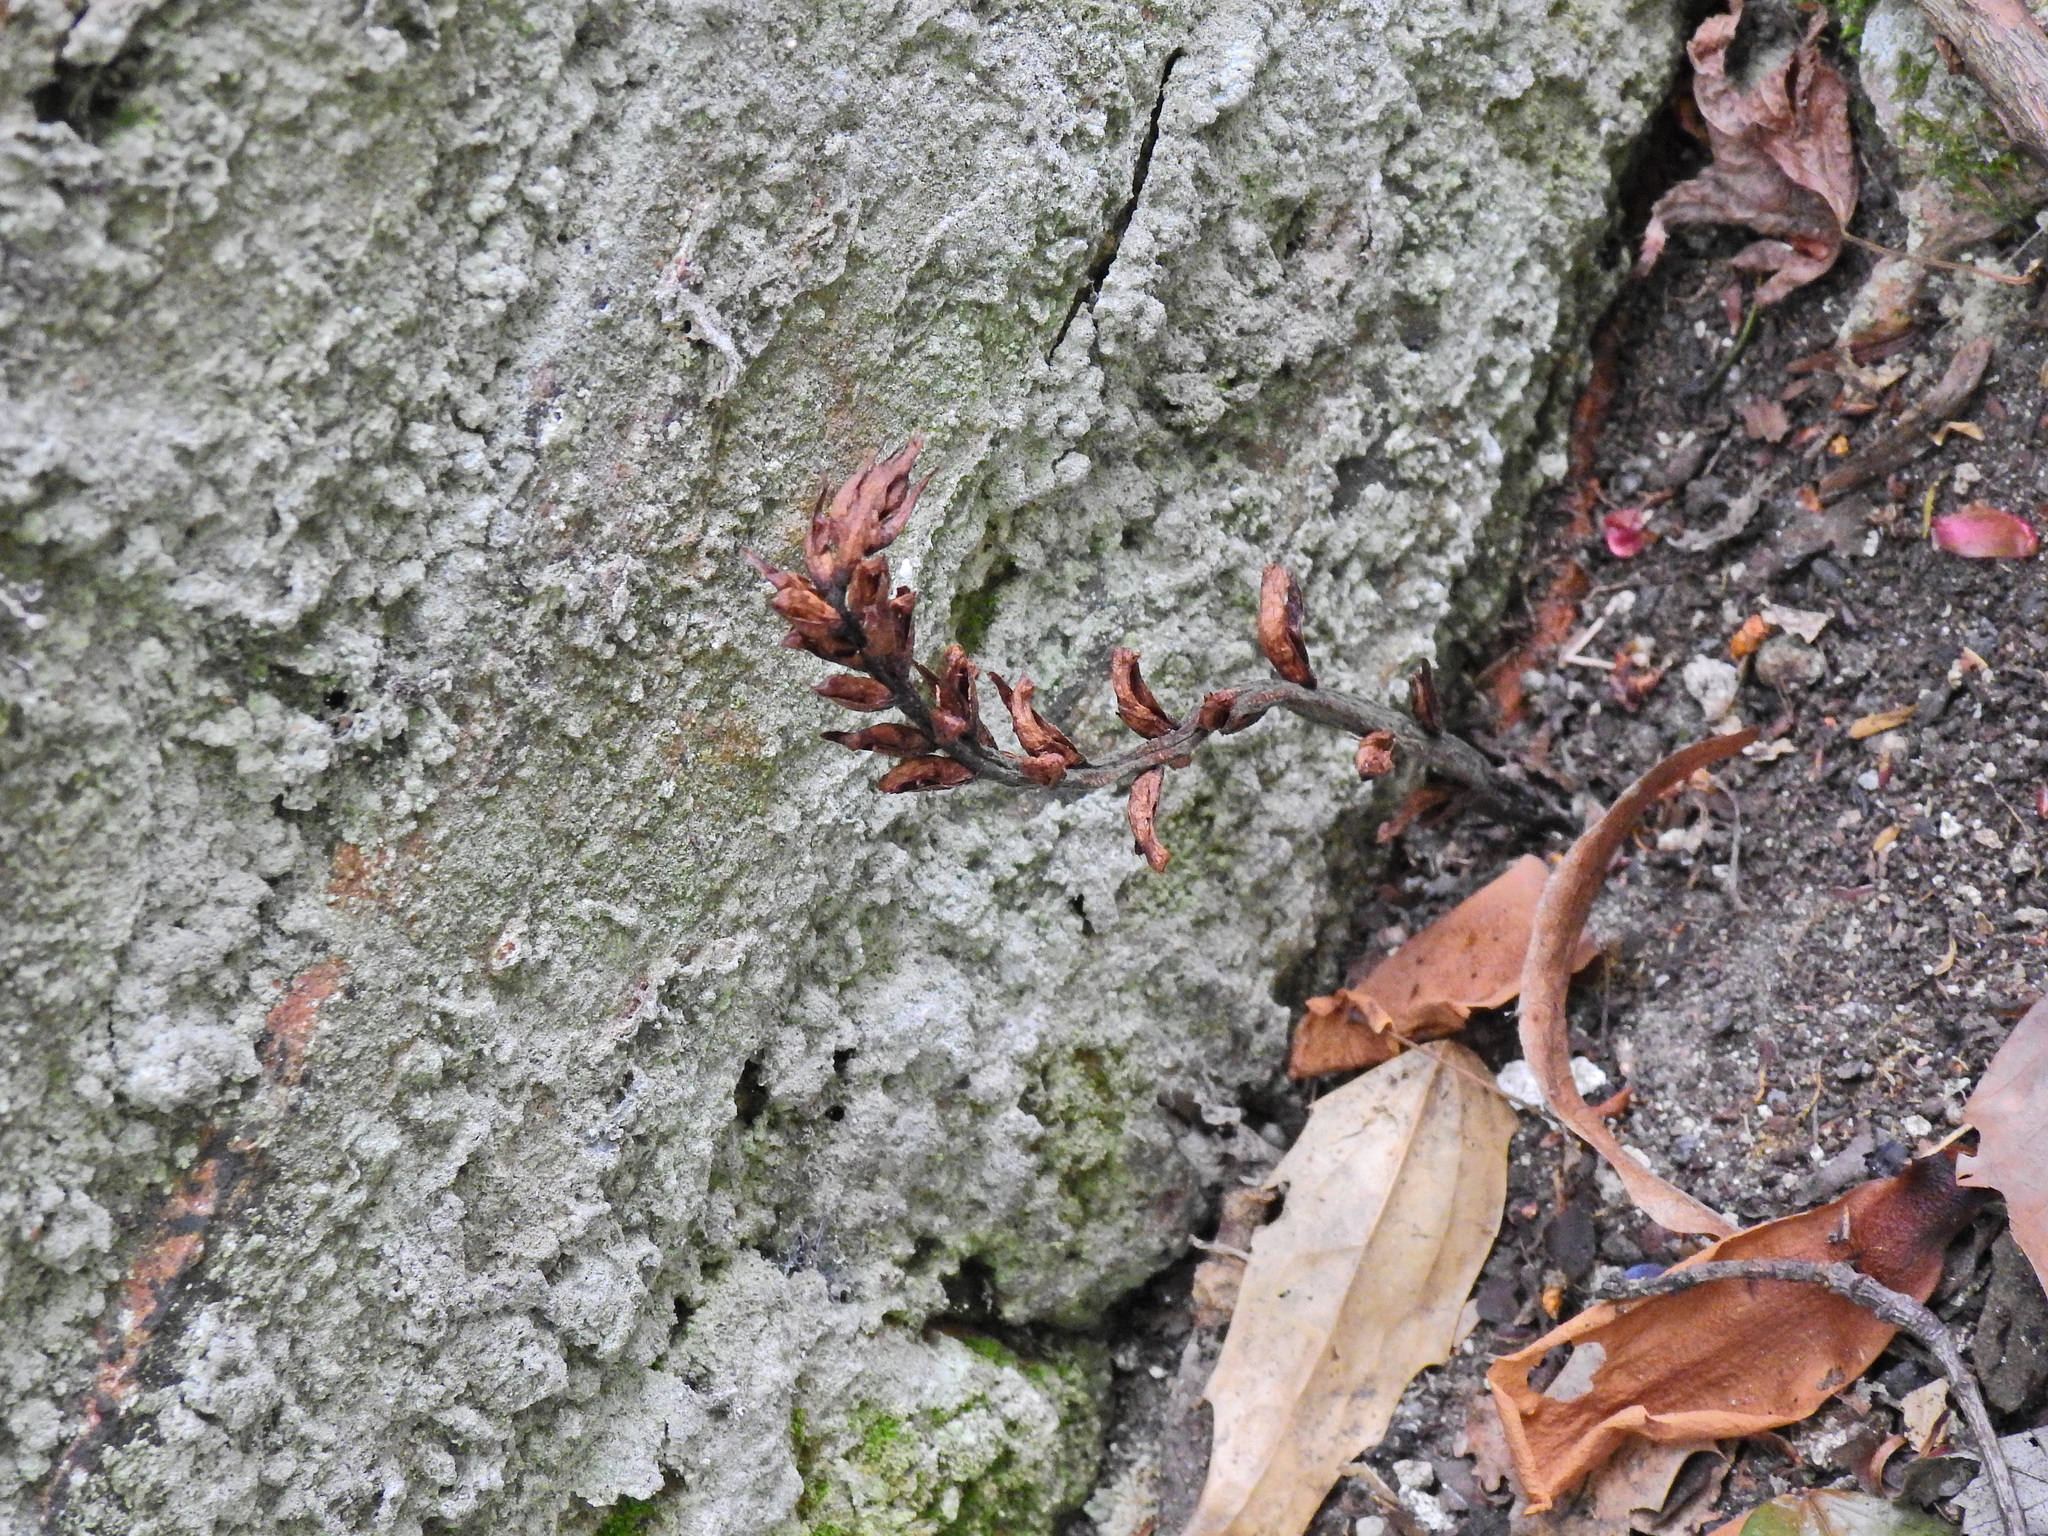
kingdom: Plantae
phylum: Tracheophyta
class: Magnoliopsida
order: Lamiales
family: Orobanchaceae
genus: Orobanche
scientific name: Orobanche hederae
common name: Ivy broomrape
